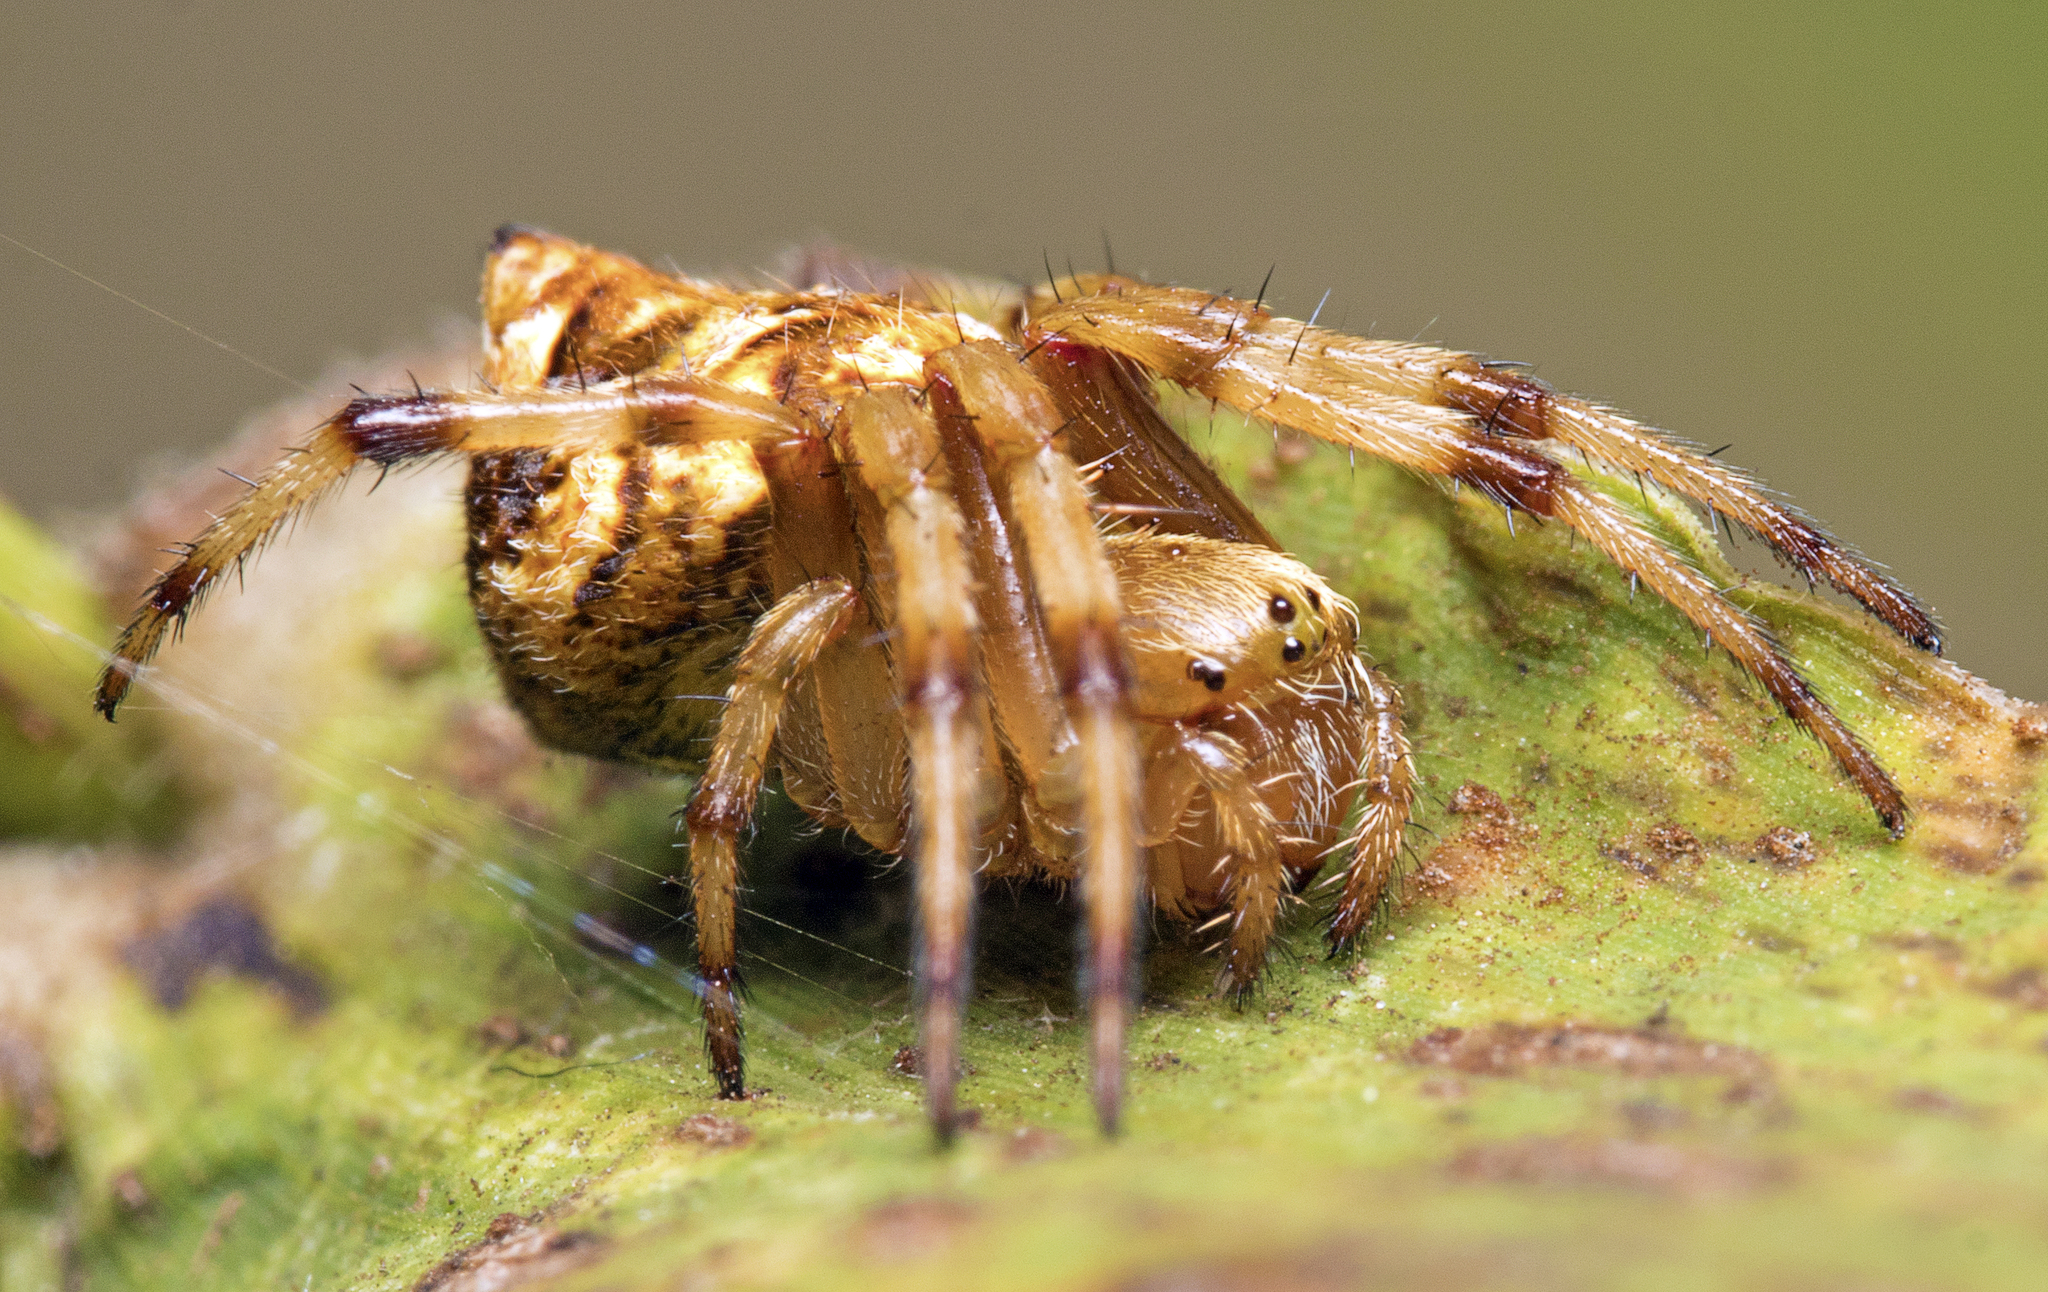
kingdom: Animalia
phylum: Arthropoda
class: Arachnida
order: Araneae
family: Araneidae
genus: Salsa
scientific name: Salsa brisbanae
